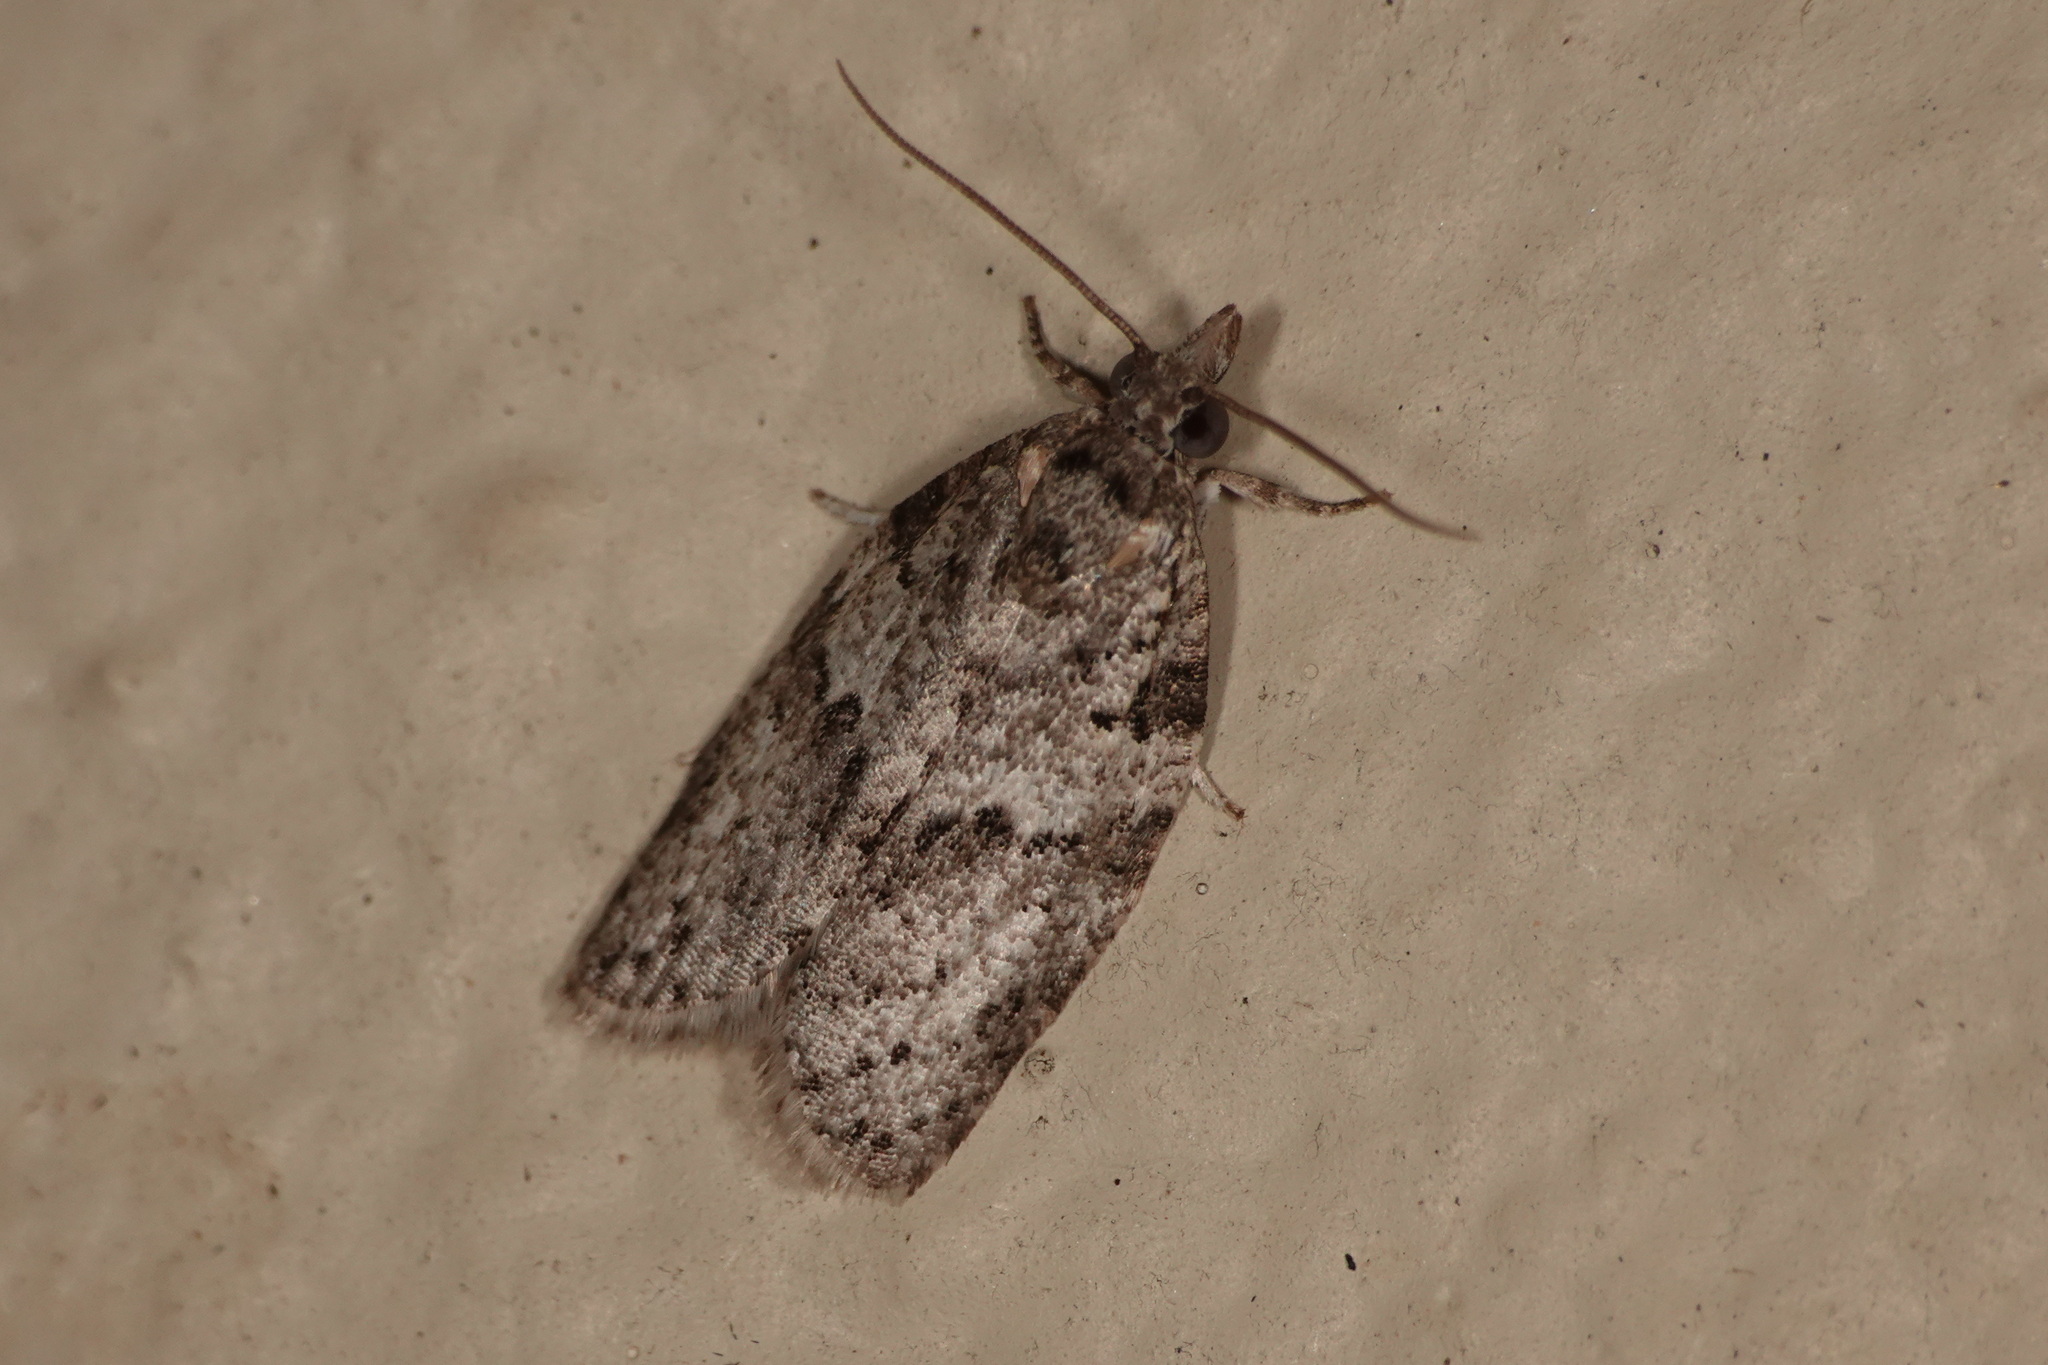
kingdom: Animalia
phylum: Arthropoda
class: Insecta
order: Lepidoptera
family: Tortricidae
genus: Isotenes
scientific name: Isotenes miserana
